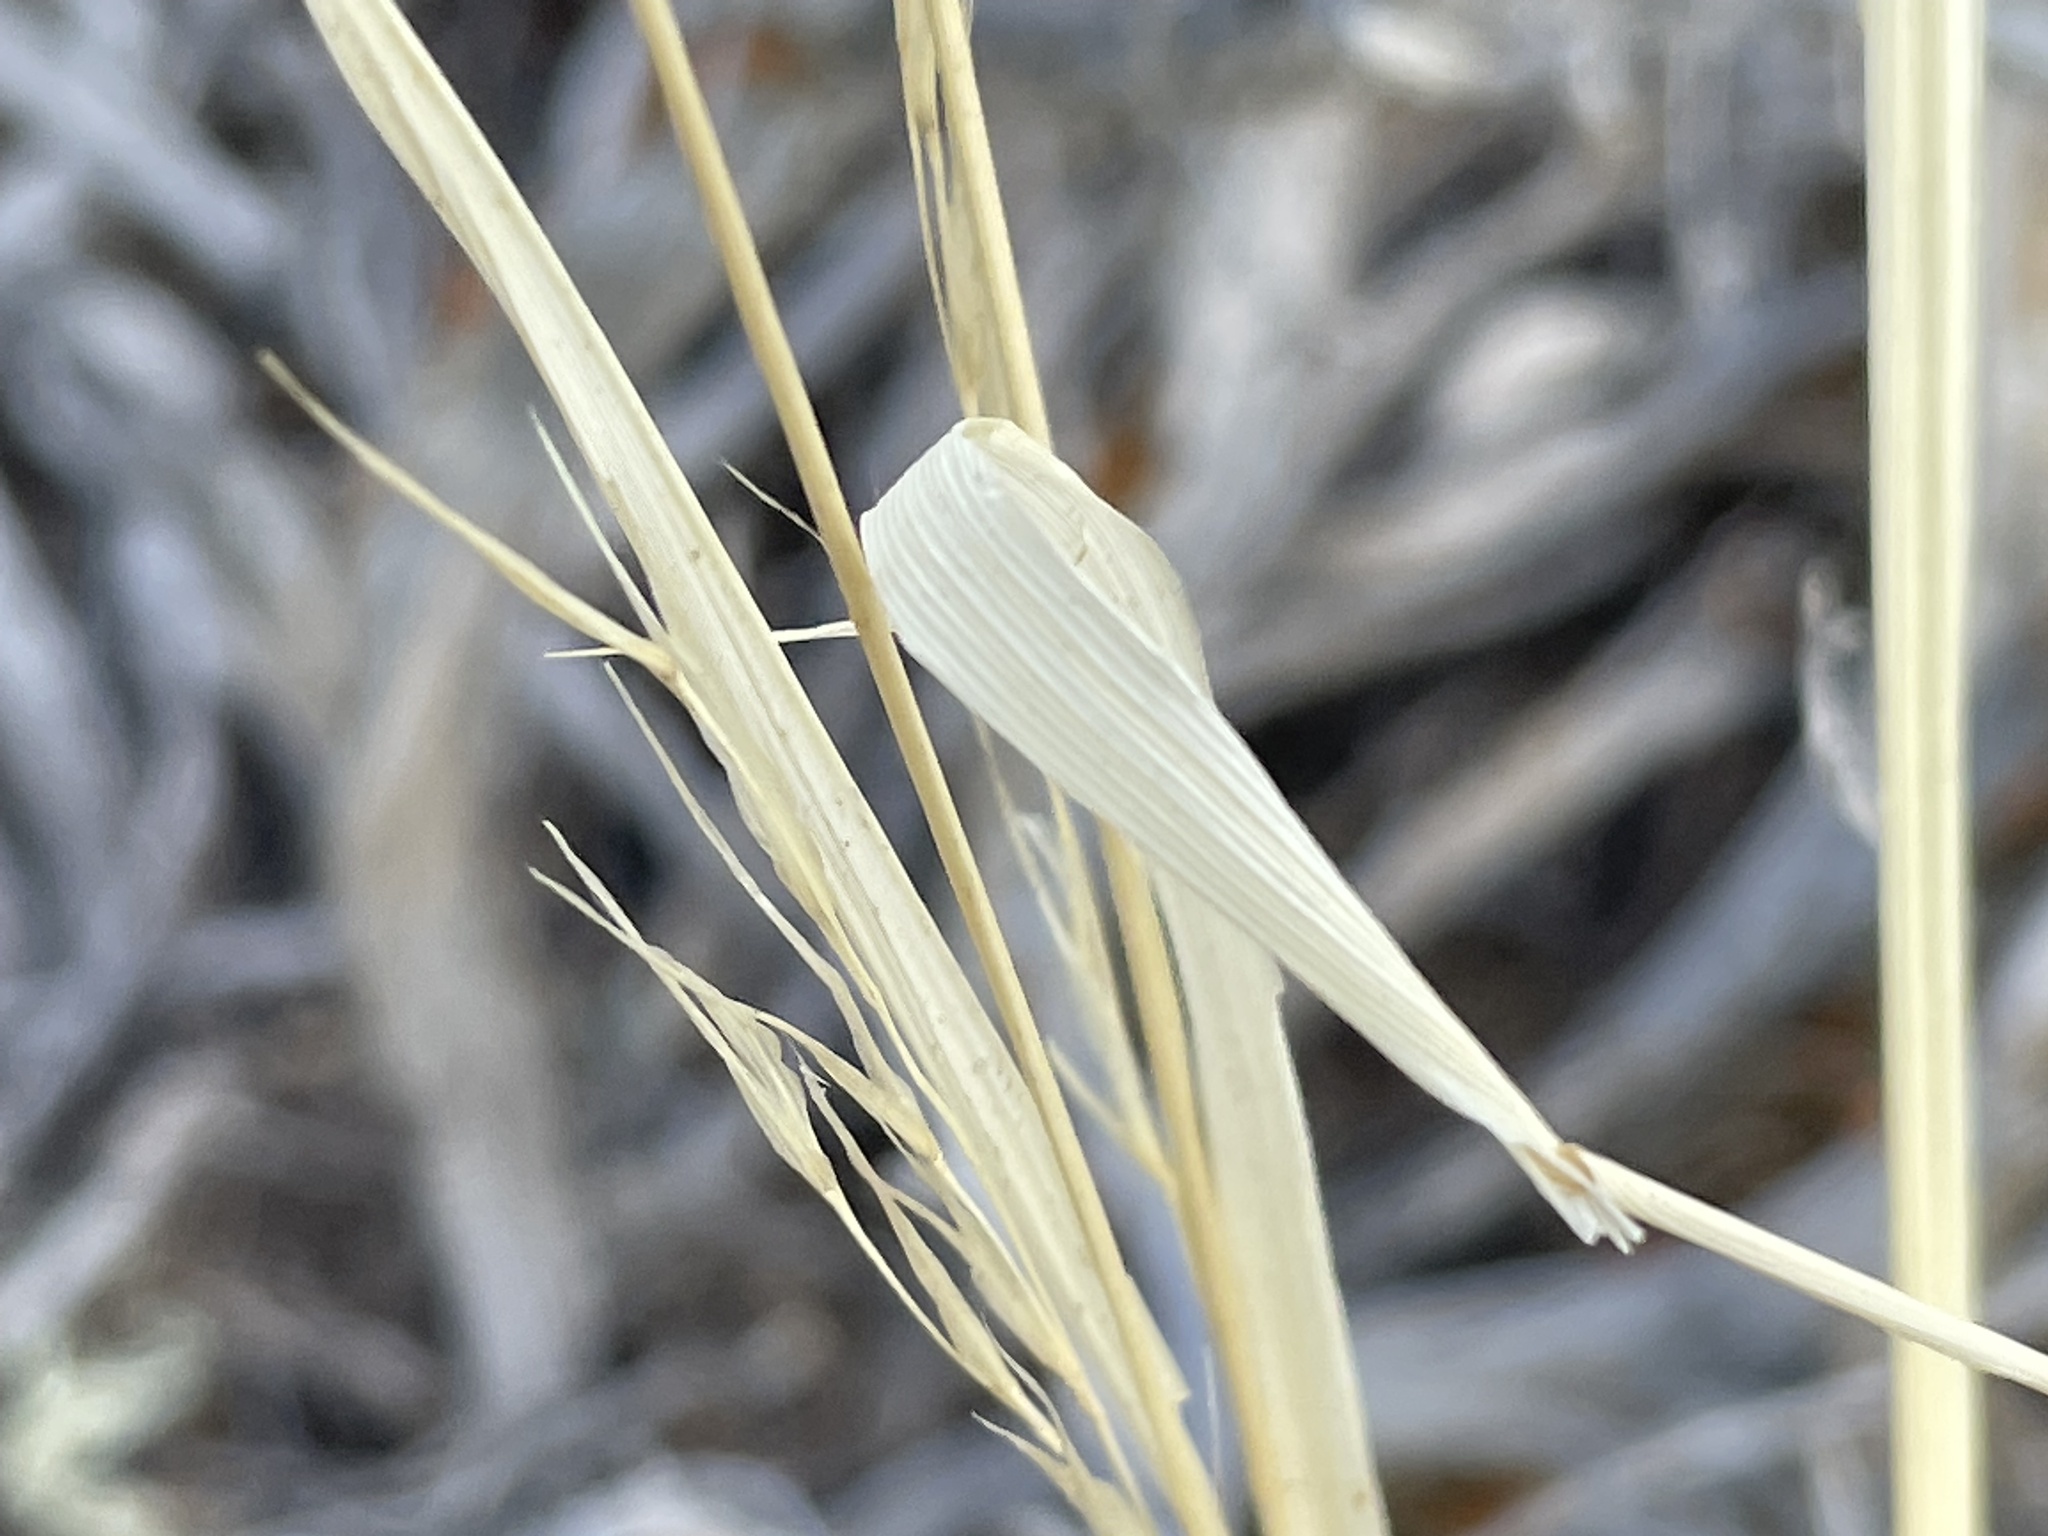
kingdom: Plantae
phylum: Tracheophyta
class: Liliopsida
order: Poales
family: Poaceae
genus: Hesperostipa
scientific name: Hesperostipa comata
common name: Needle-and-thread grass
